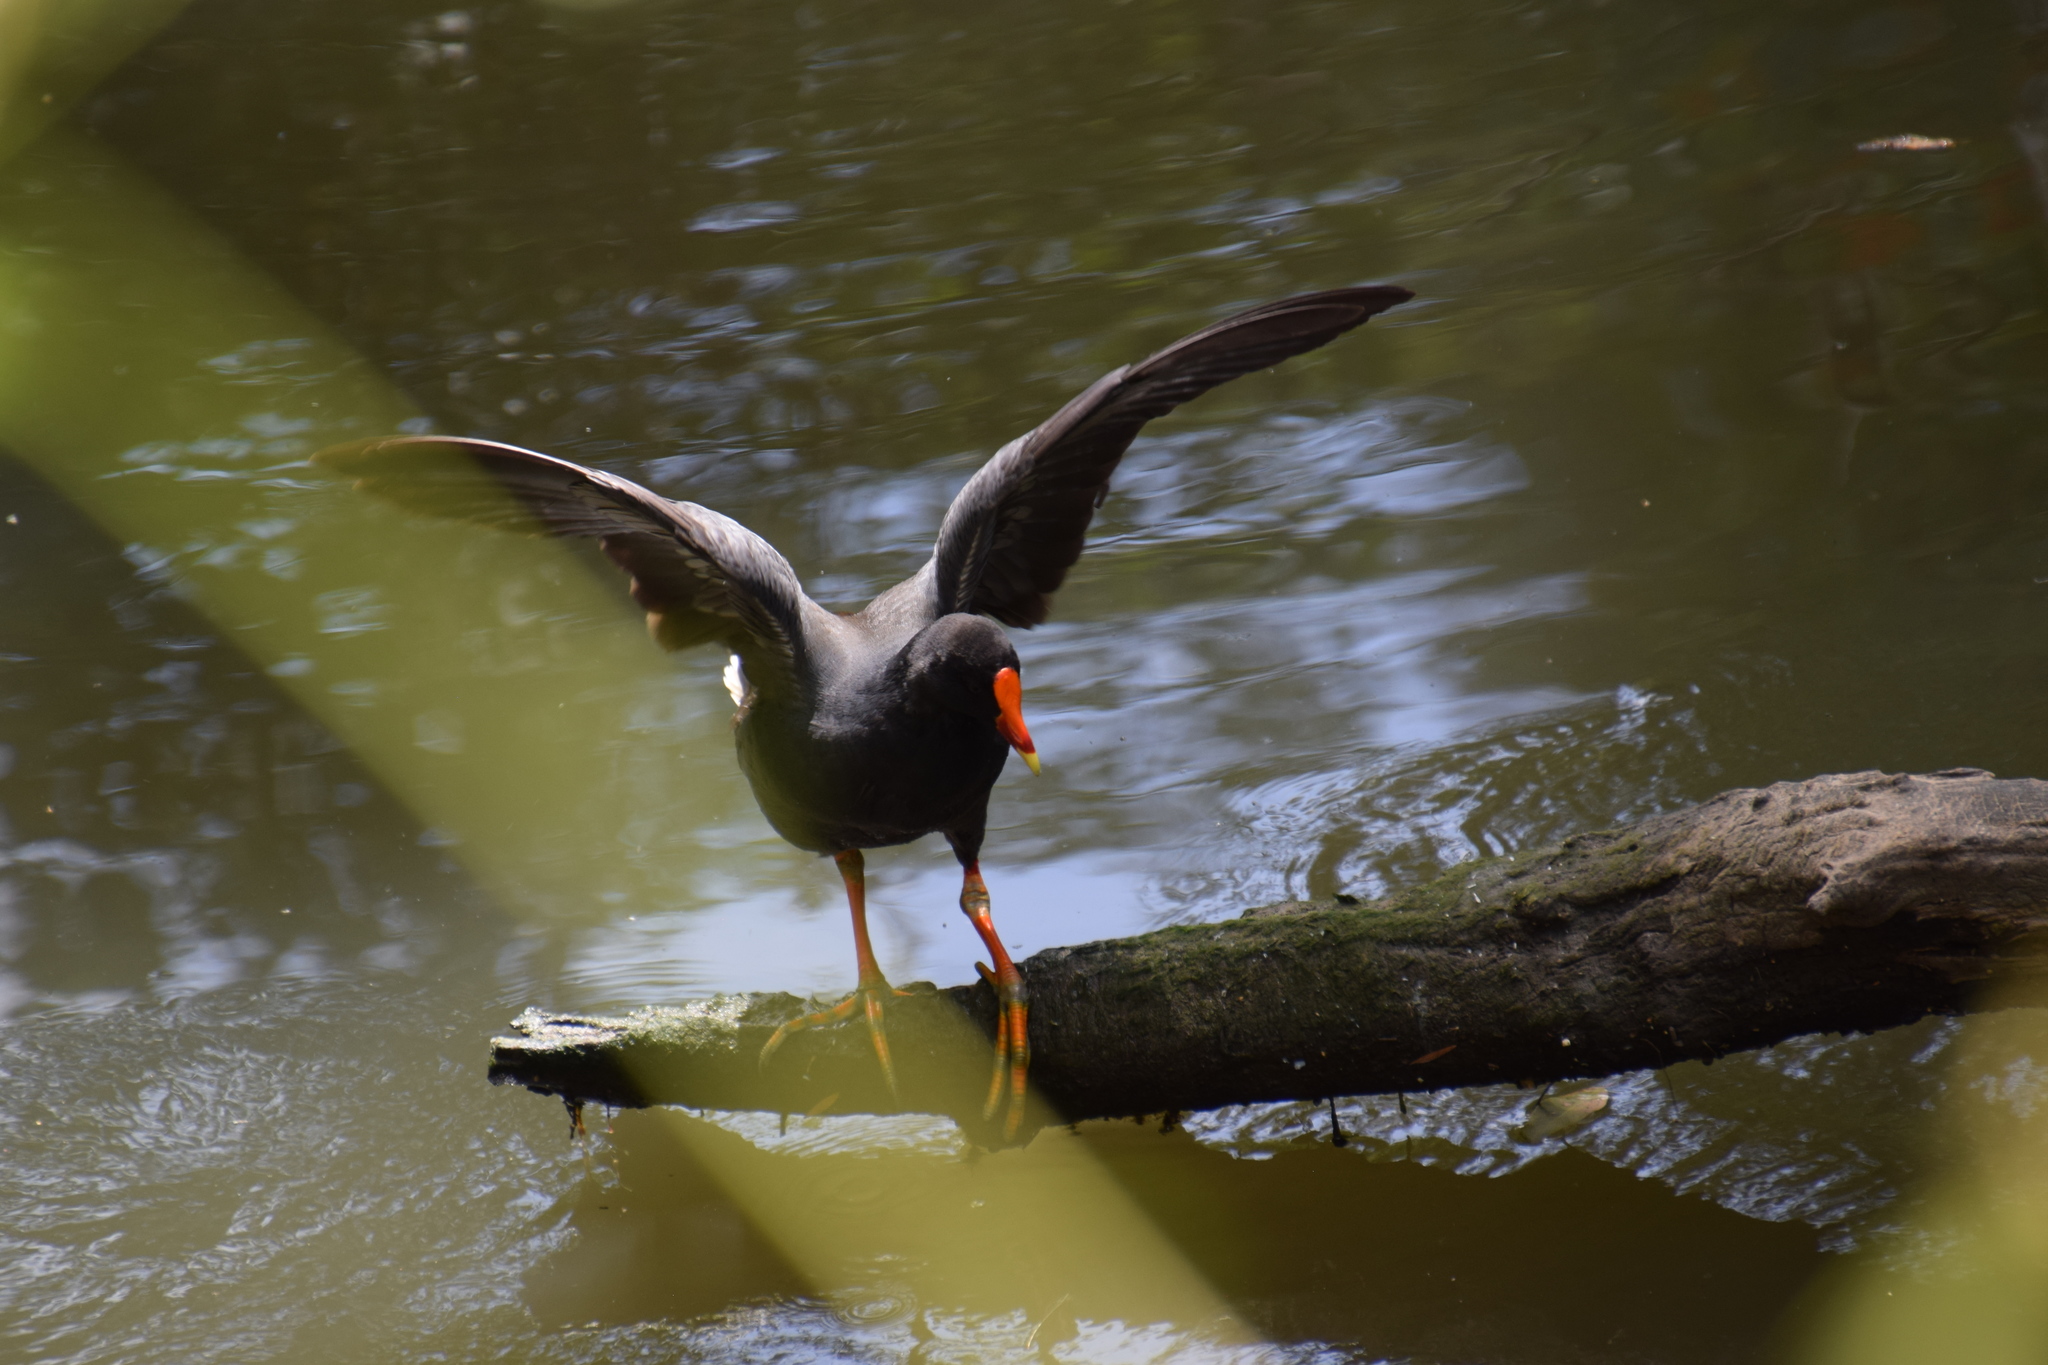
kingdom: Animalia
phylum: Chordata
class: Aves
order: Gruiformes
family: Rallidae
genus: Gallinula
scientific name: Gallinula tenebrosa
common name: Dusky moorhen
